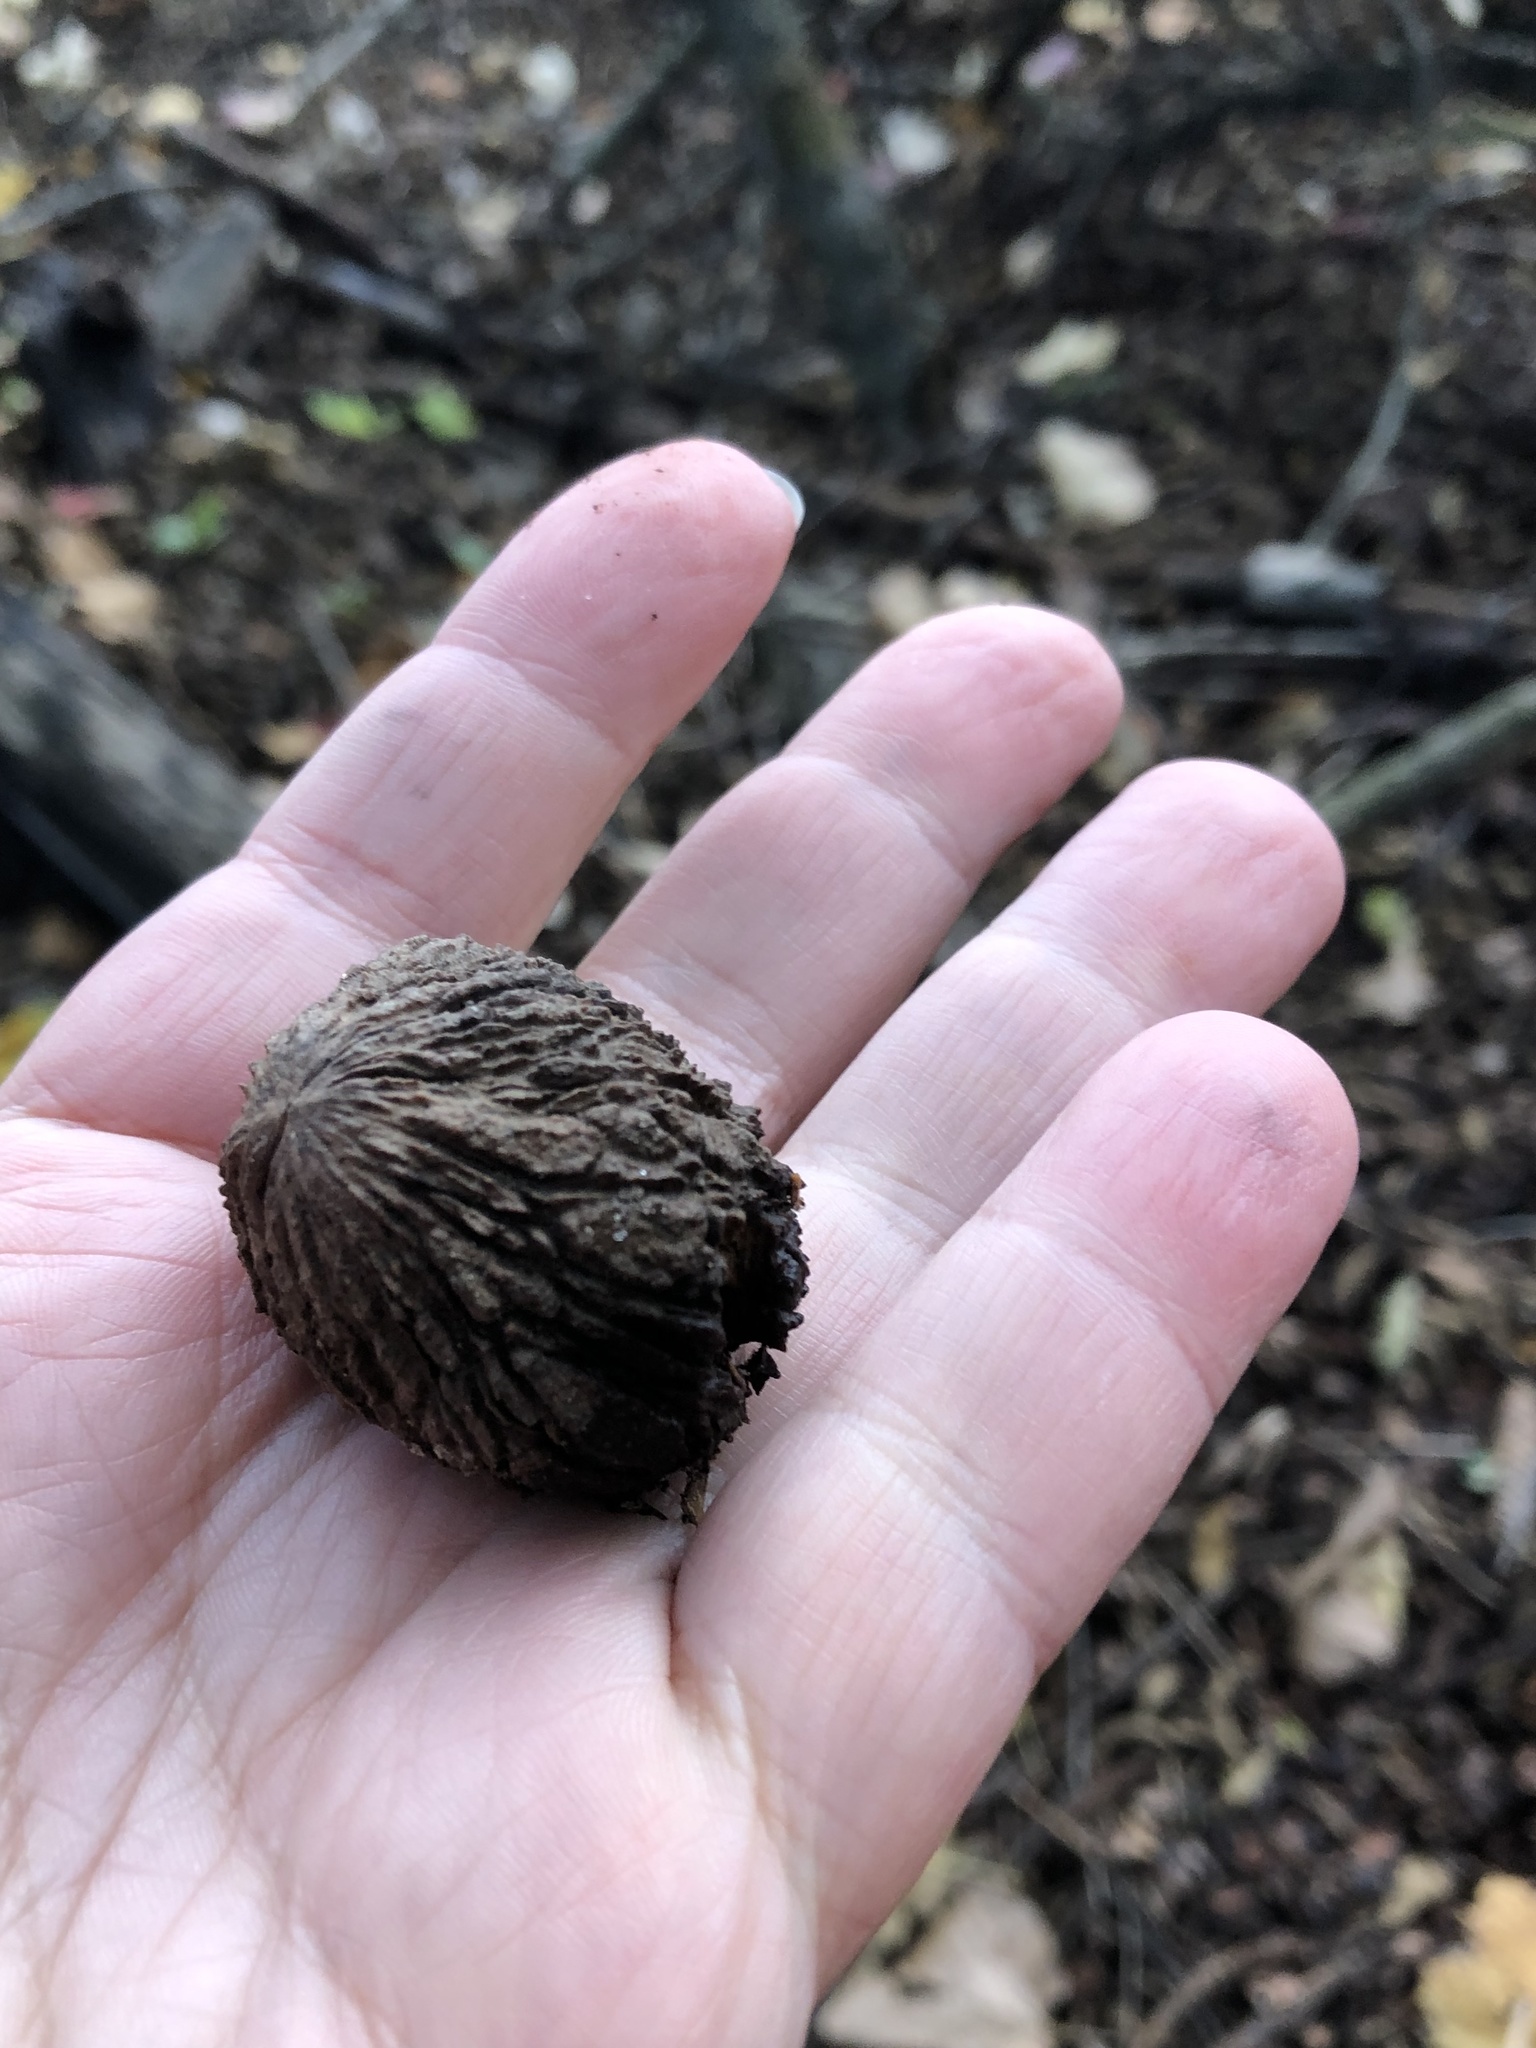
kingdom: Plantae
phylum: Tracheophyta
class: Magnoliopsida
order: Fagales
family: Juglandaceae
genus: Juglans
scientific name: Juglans nigra
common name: Black walnut
